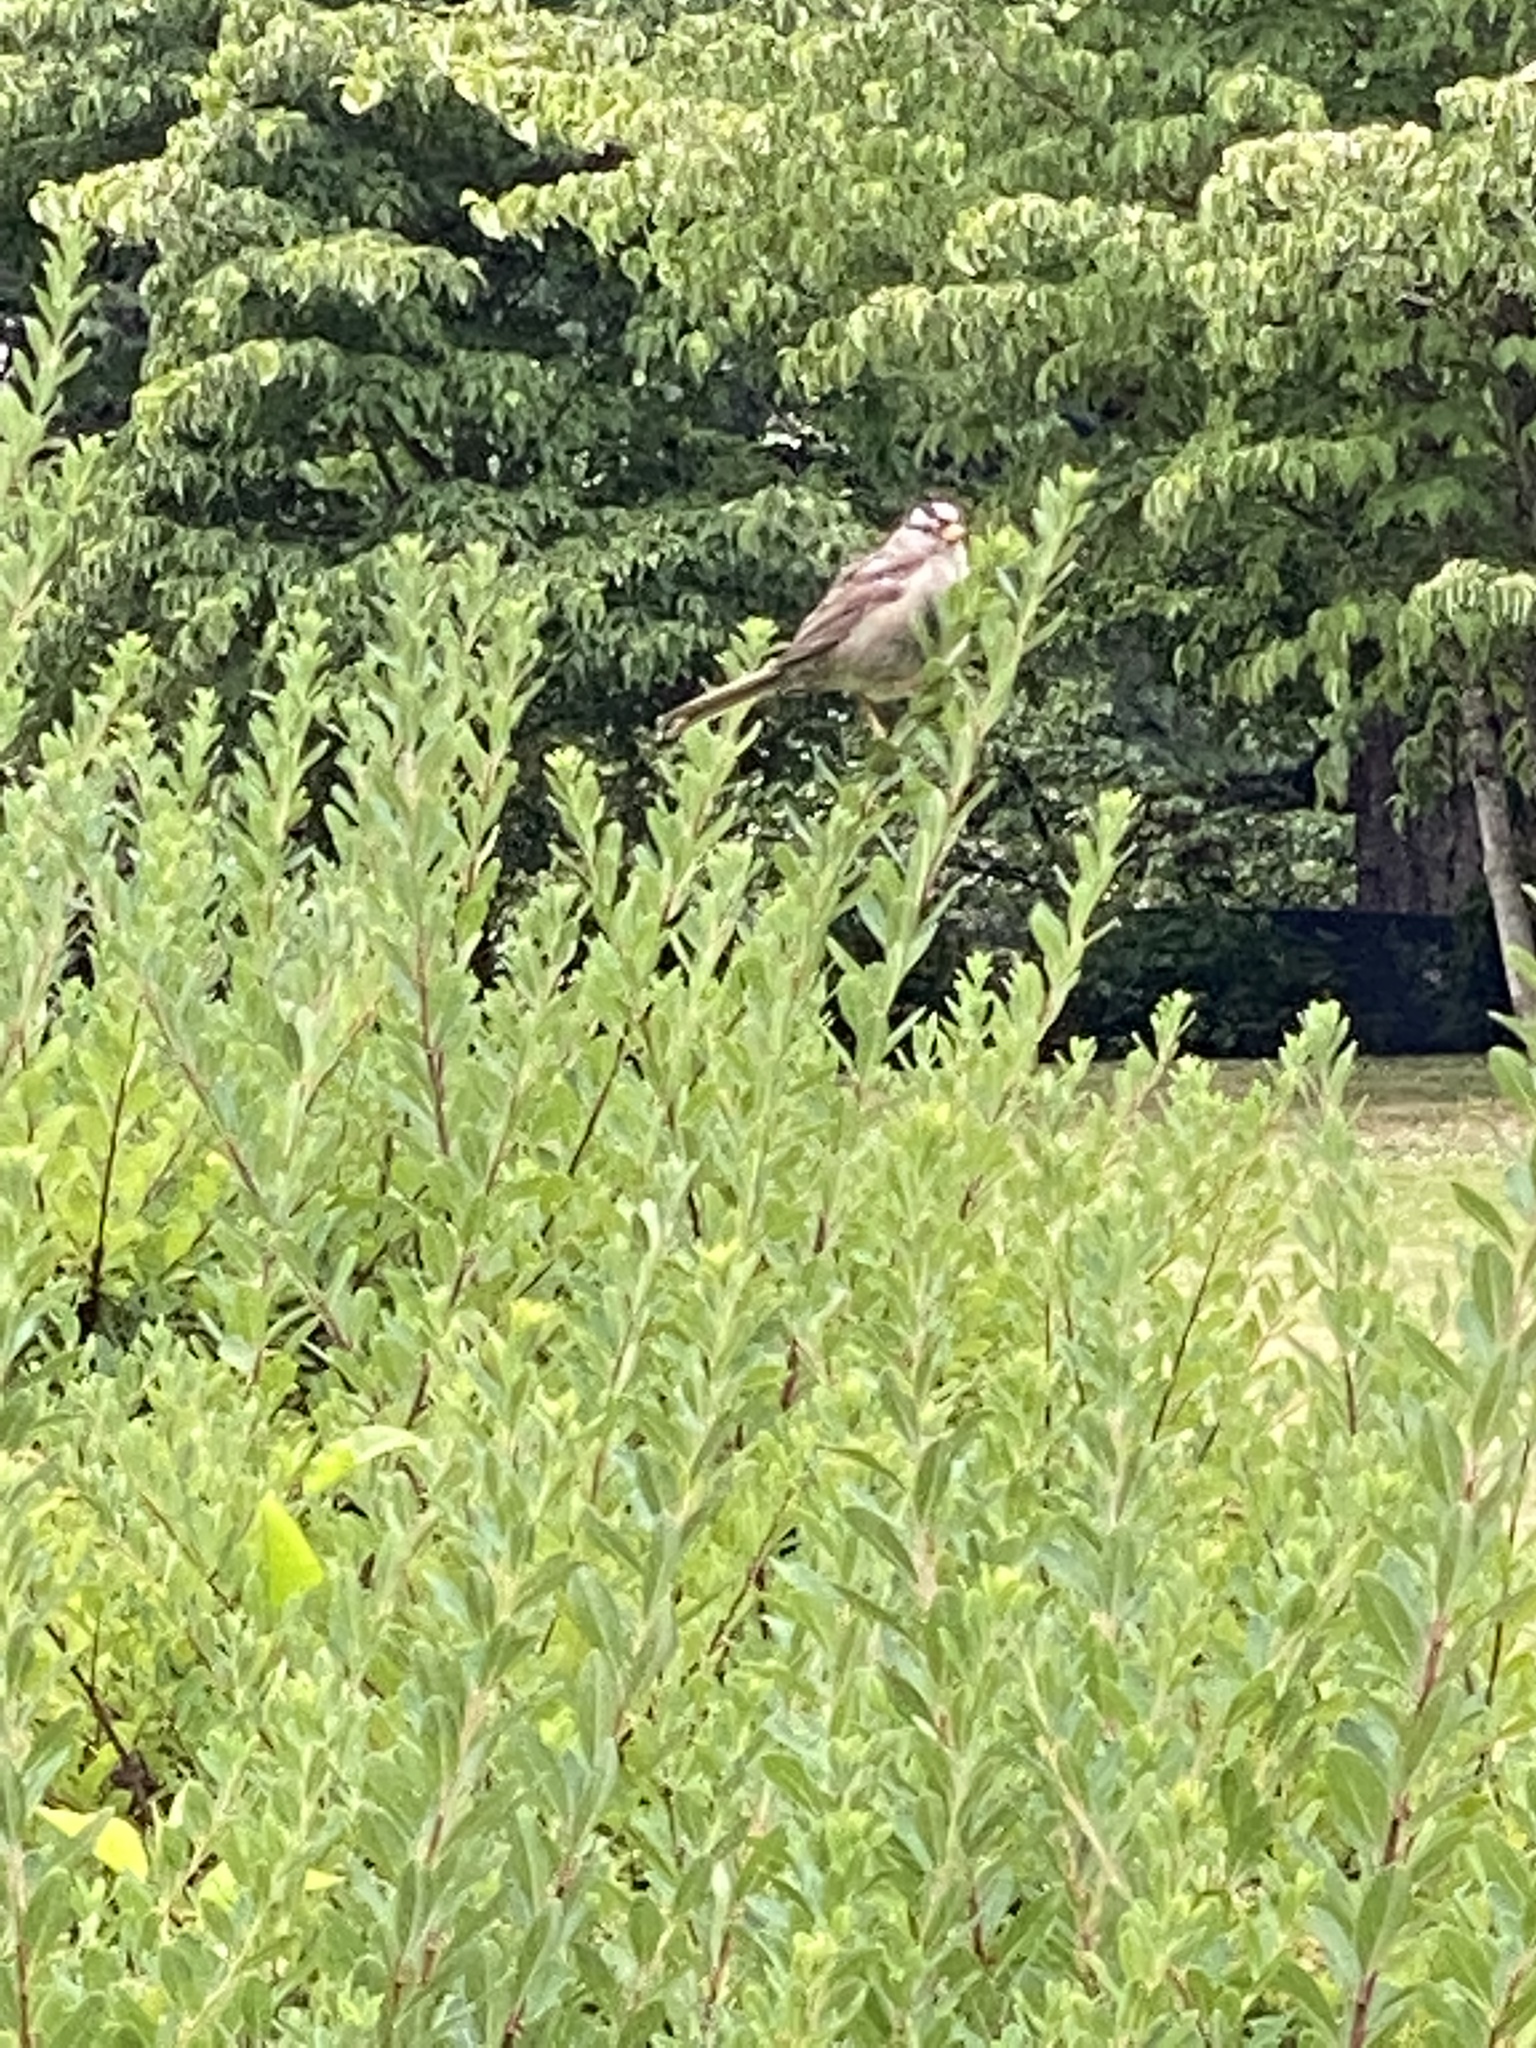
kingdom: Animalia
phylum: Chordata
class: Aves
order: Passeriformes
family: Passerellidae
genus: Zonotrichia
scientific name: Zonotrichia leucophrys
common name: White-crowned sparrow
